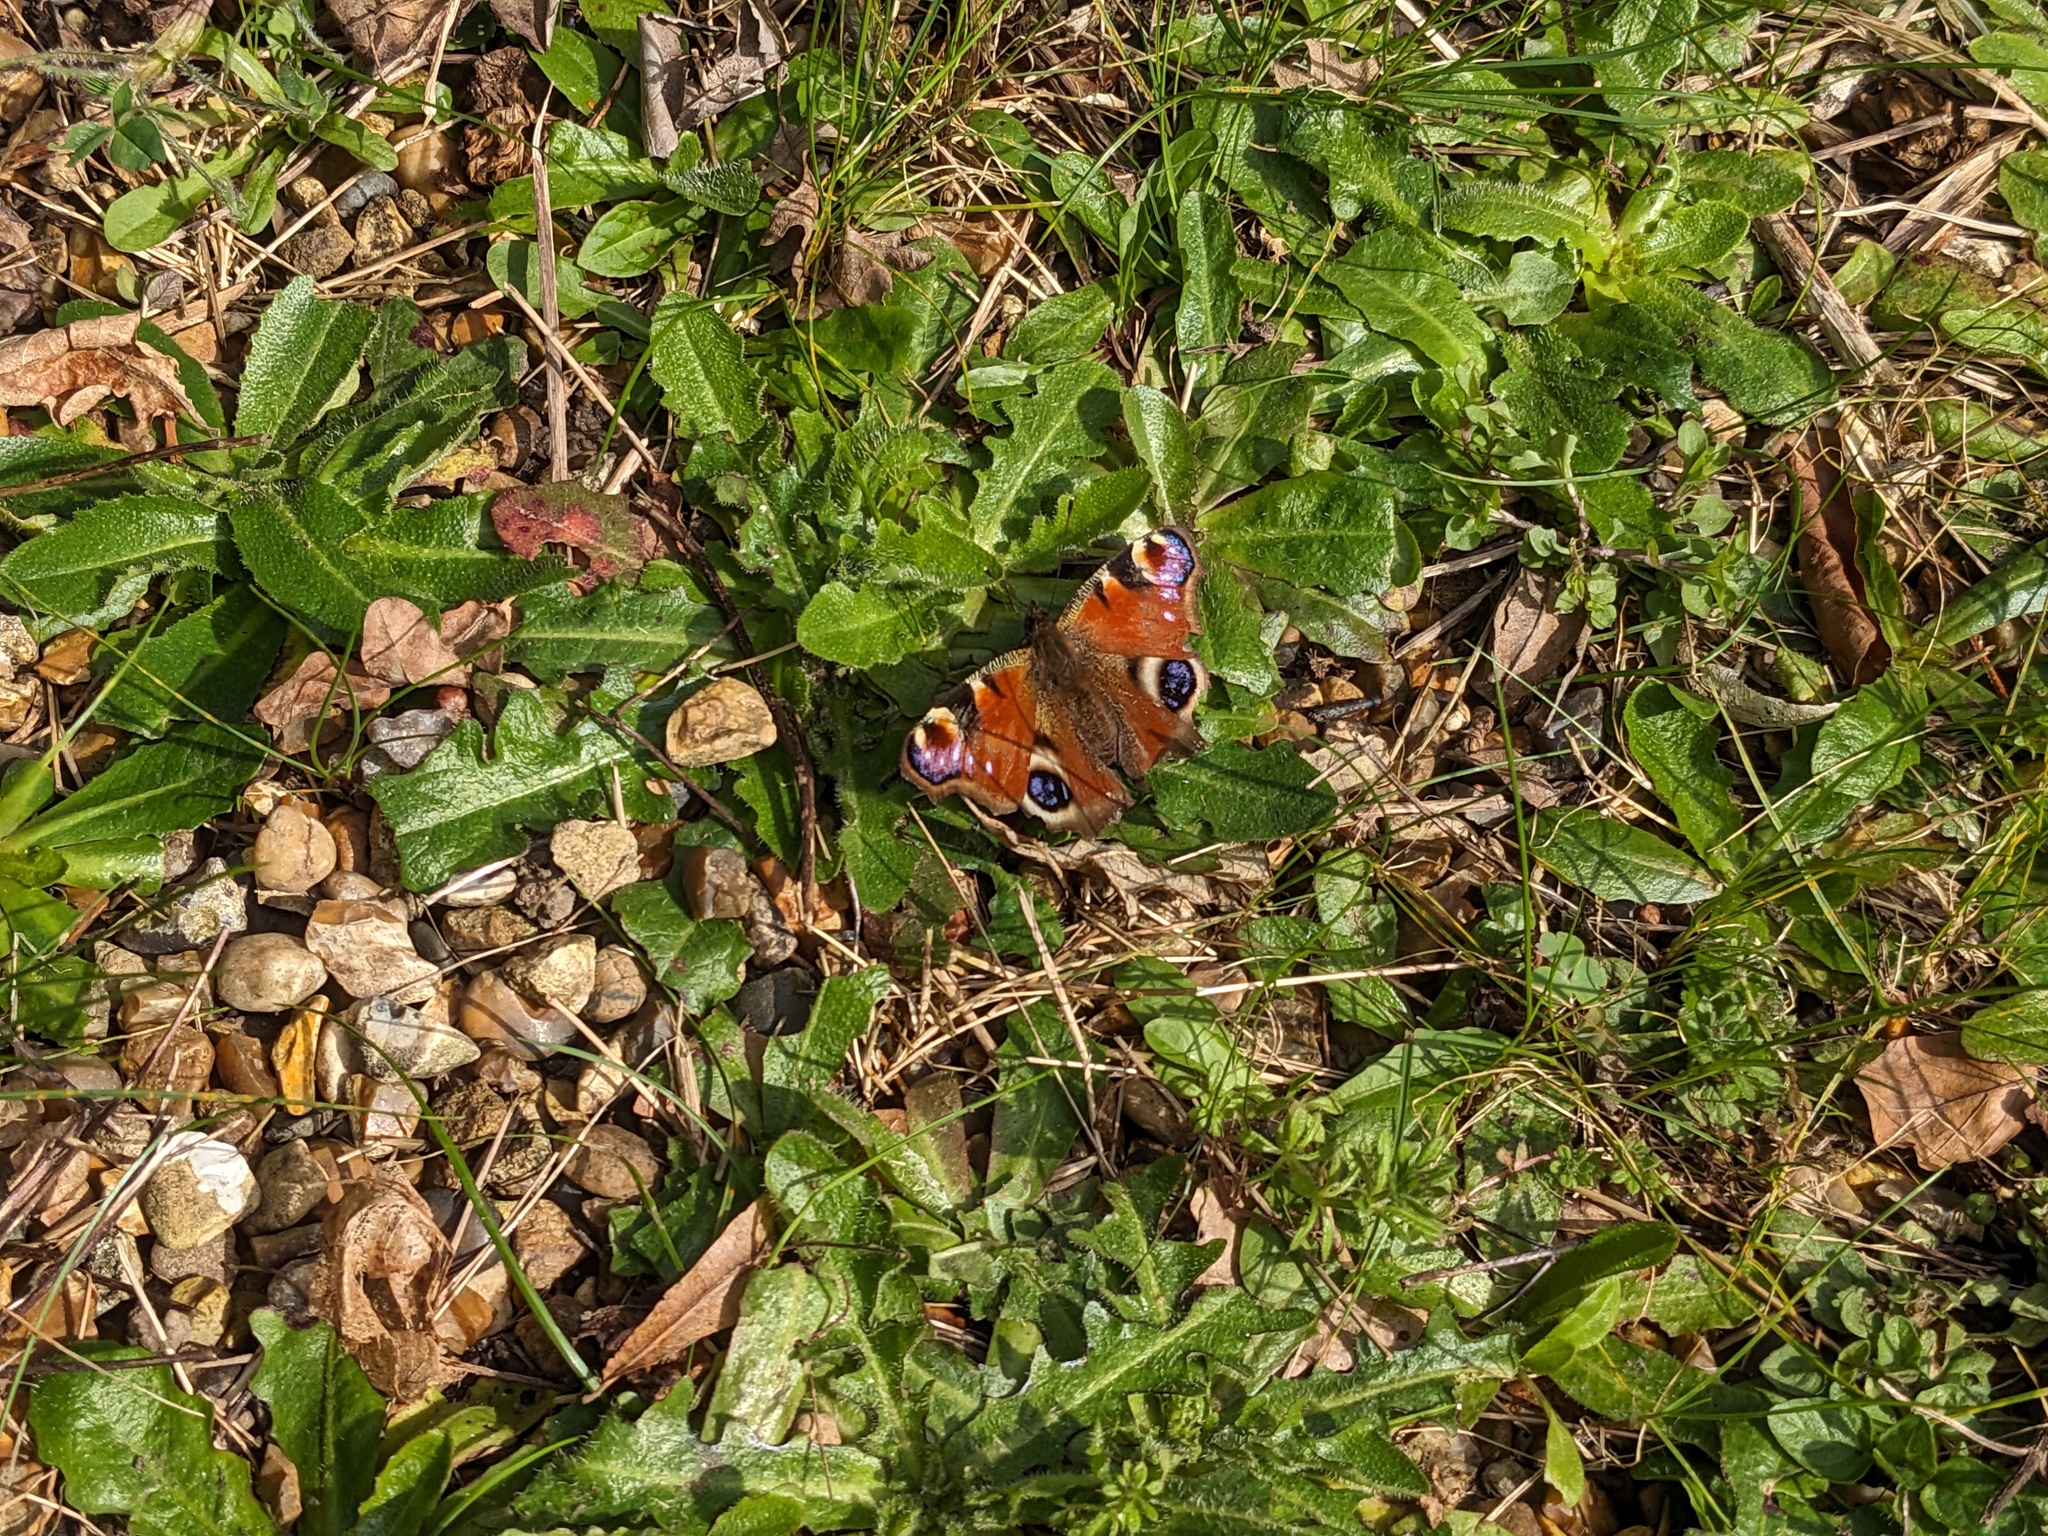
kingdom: Animalia
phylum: Arthropoda
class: Insecta
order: Lepidoptera
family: Nymphalidae
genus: Aglais
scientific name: Aglais io
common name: Peacock
